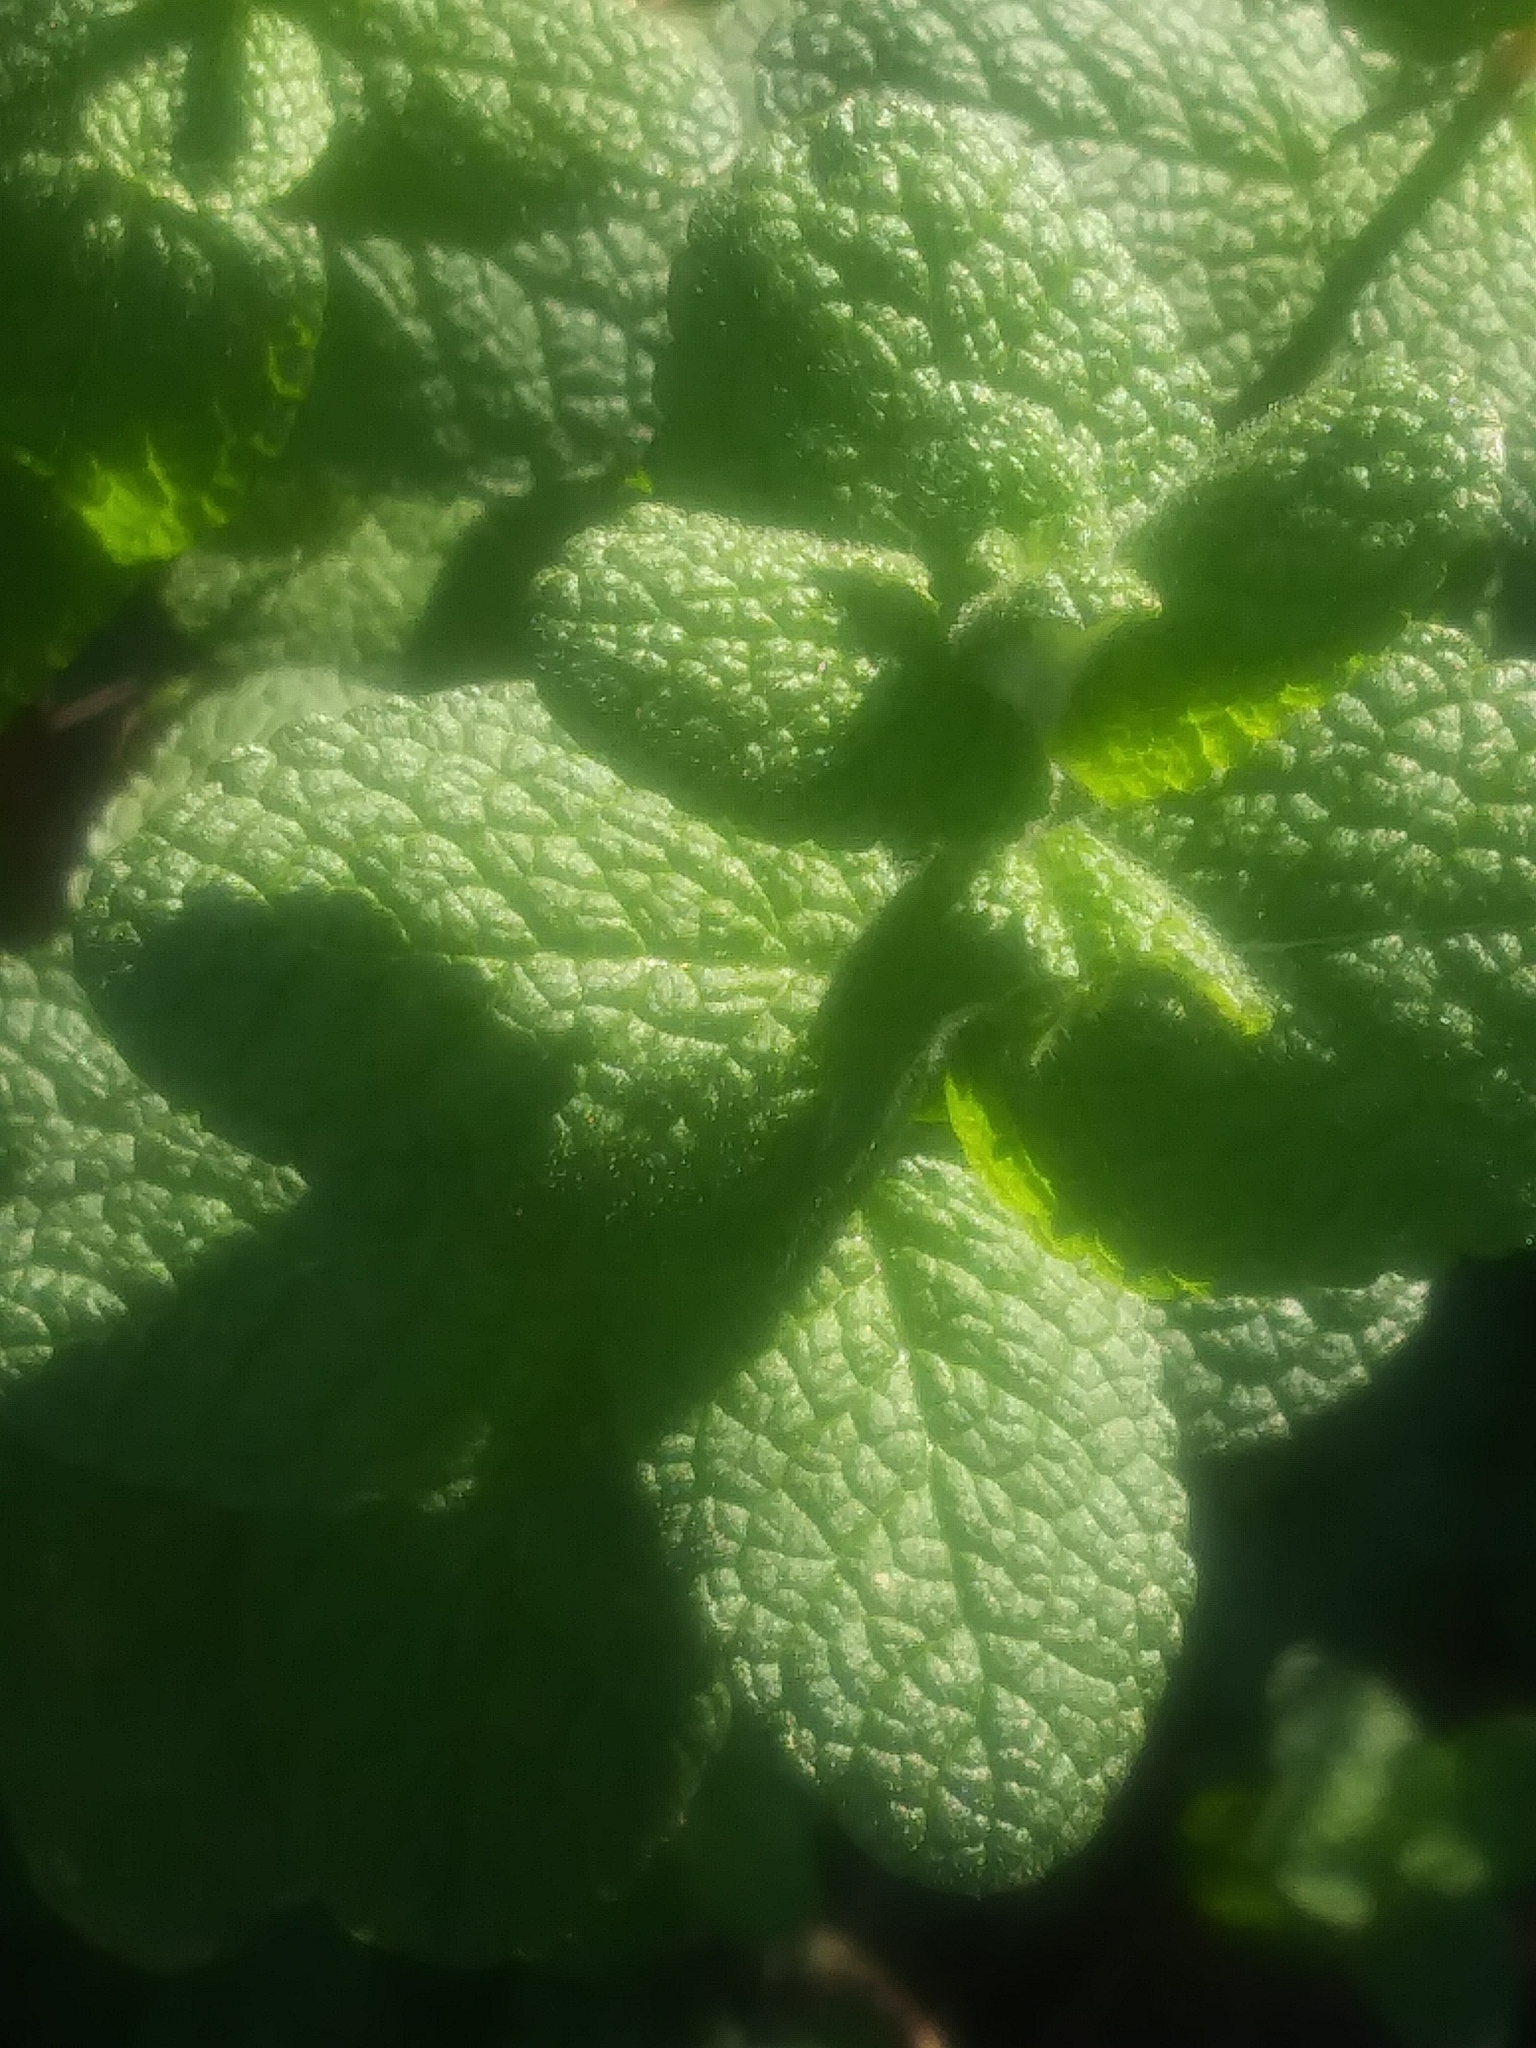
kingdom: Plantae
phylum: Tracheophyta
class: Magnoliopsida
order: Lamiales
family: Lamiaceae
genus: Mentha
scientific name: Mentha suaveolens
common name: Apple mint
